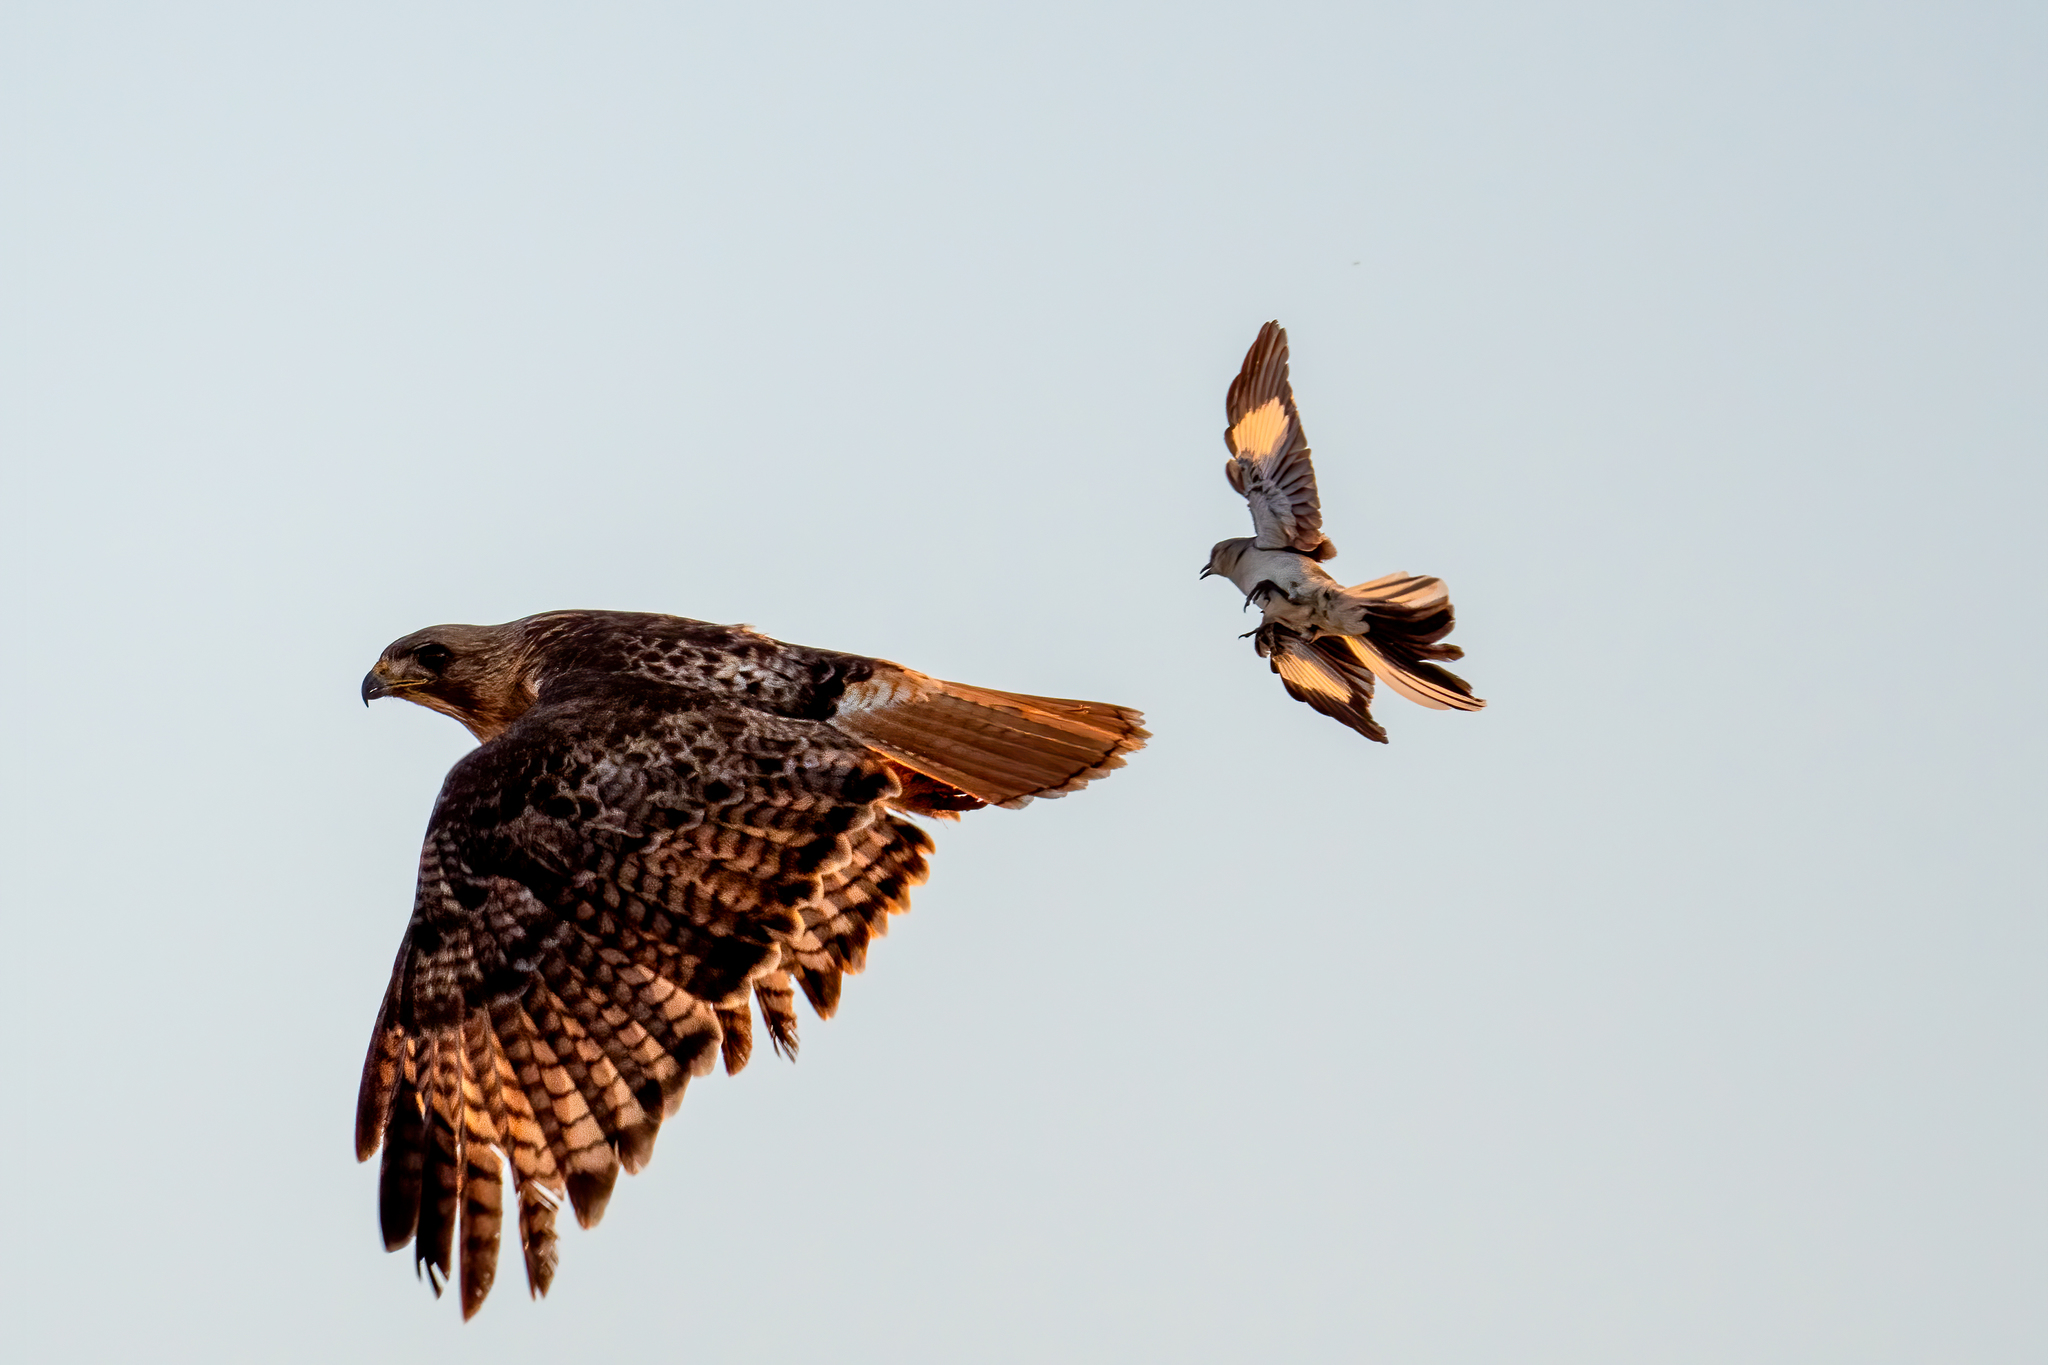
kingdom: Animalia
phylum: Chordata
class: Aves
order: Accipitriformes
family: Accipitridae
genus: Buteo
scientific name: Buteo jamaicensis
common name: Red-tailed hawk
